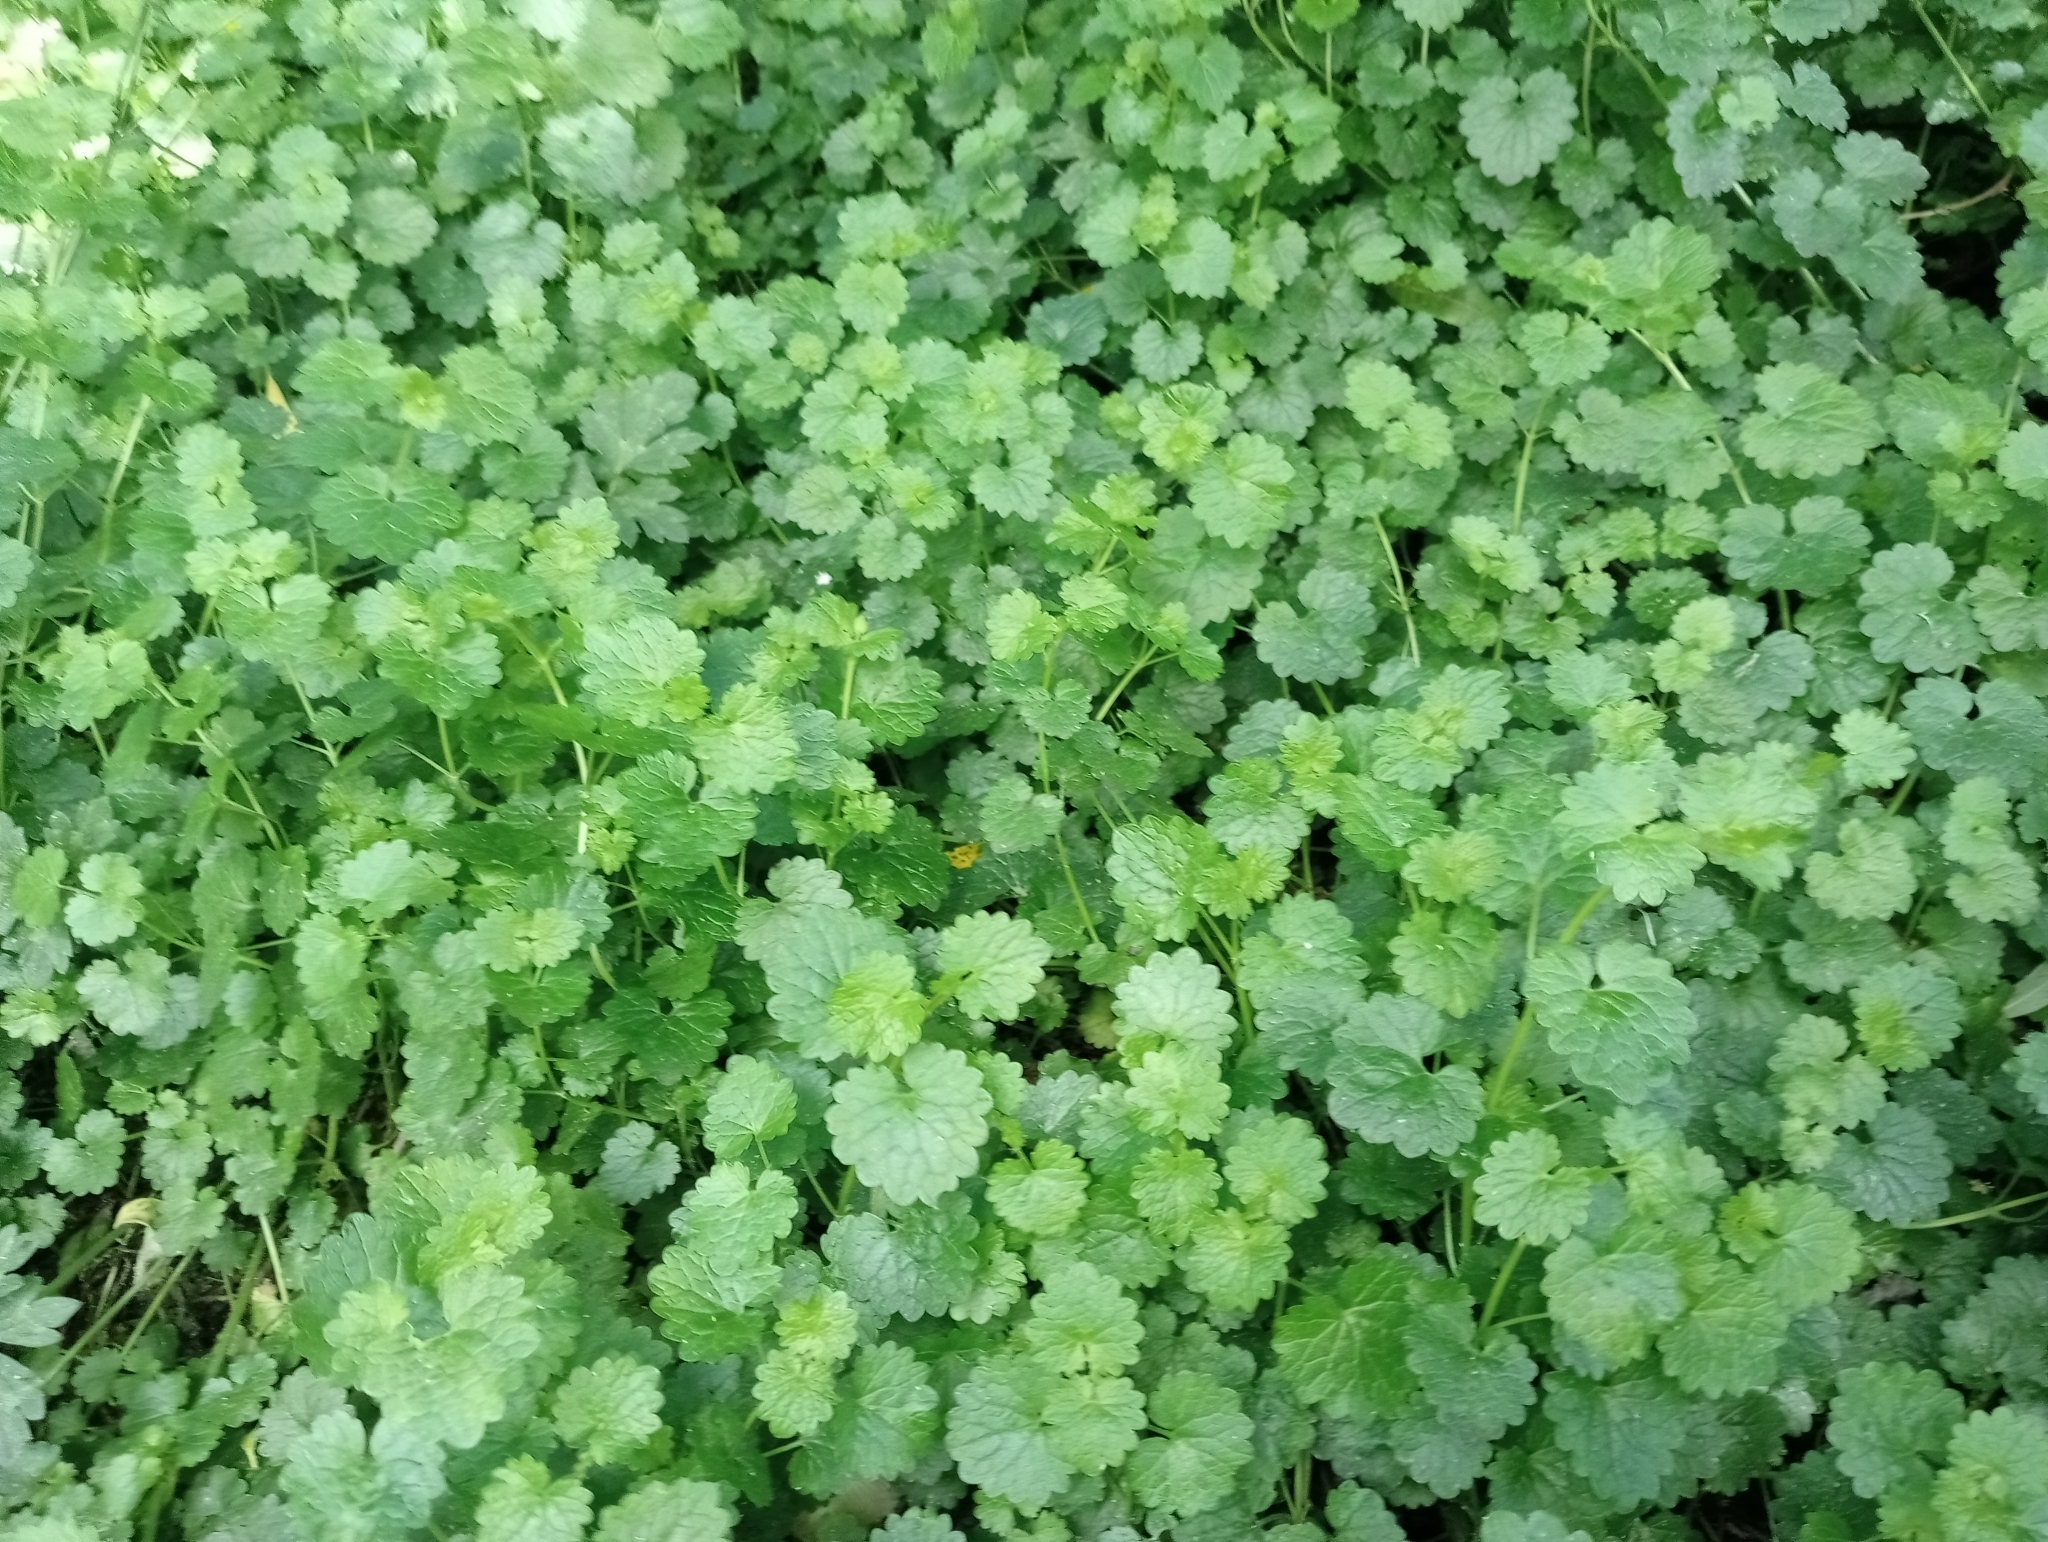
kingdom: Plantae
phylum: Tracheophyta
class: Magnoliopsida
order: Lamiales
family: Lamiaceae
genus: Glechoma
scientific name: Glechoma hederacea
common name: Ground ivy
